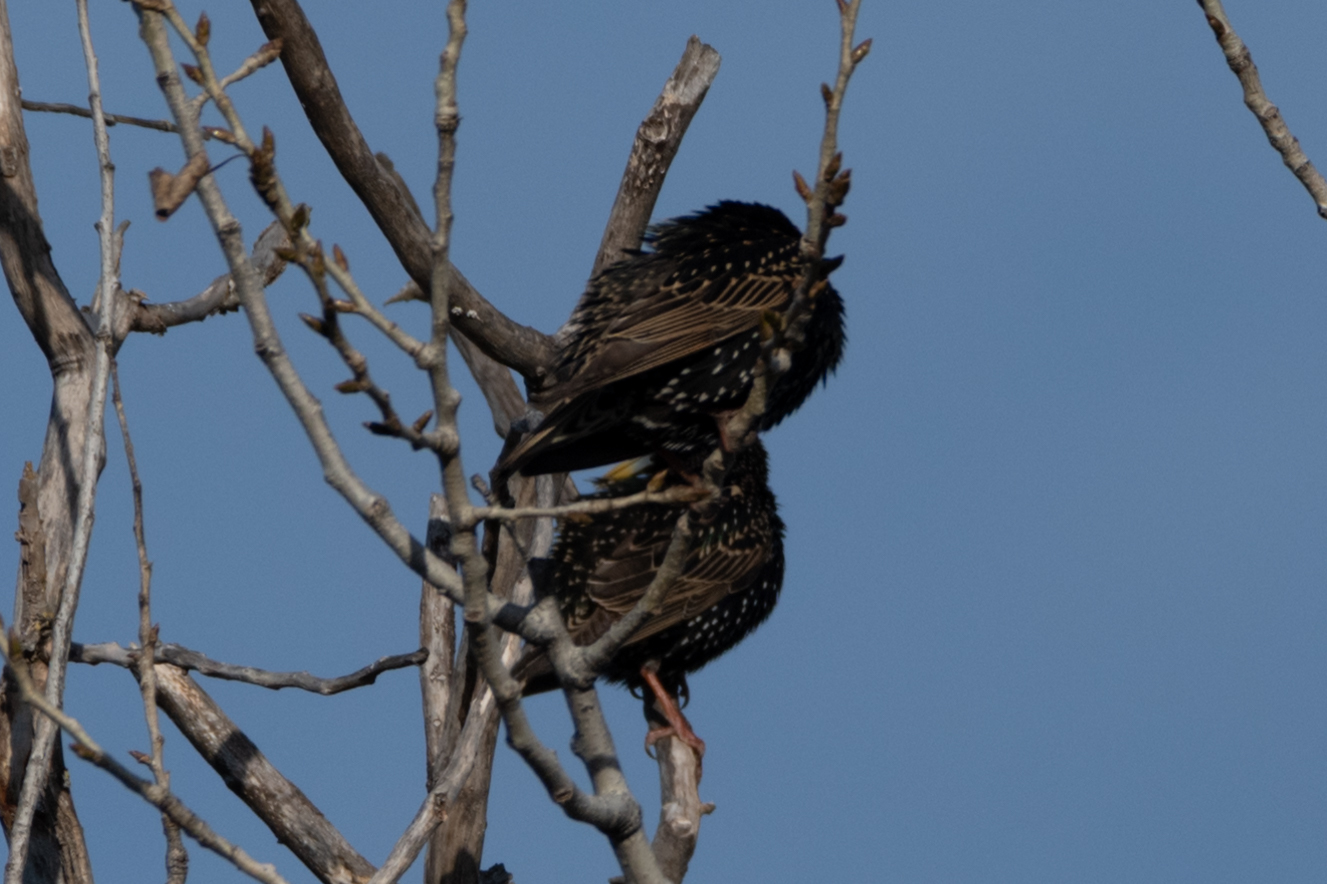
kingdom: Animalia
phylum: Chordata
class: Aves
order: Passeriformes
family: Sturnidae
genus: Sturnus
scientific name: Sturnus vulgaris
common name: Common starling
